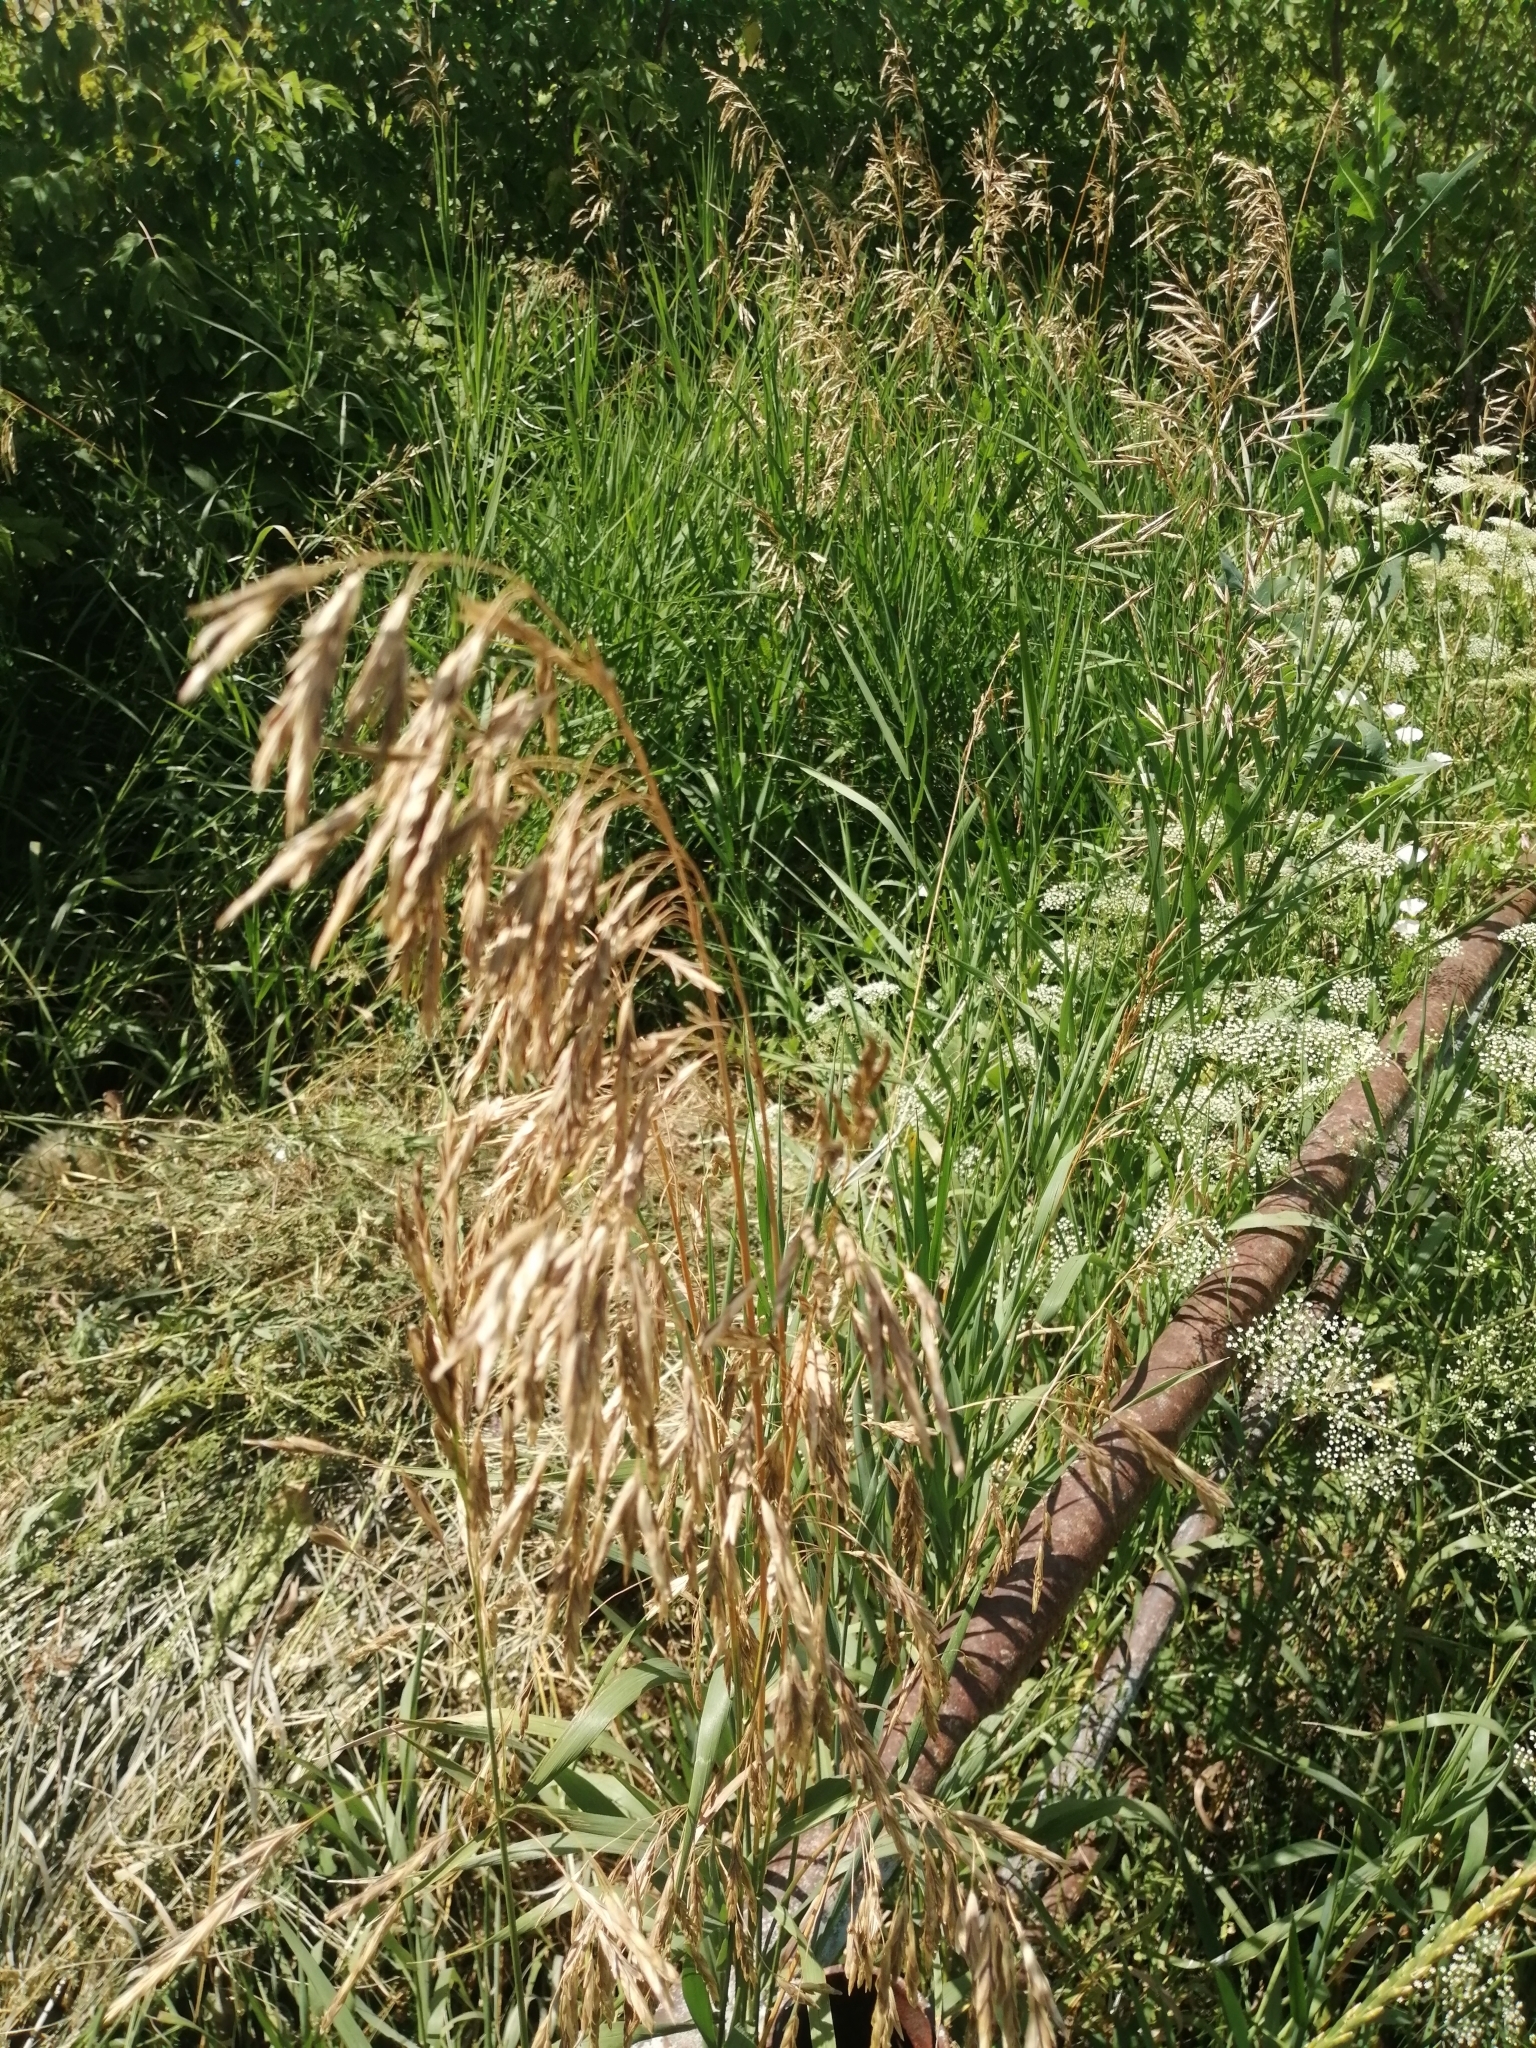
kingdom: Plantae
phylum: Tracheophyta
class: Liliopsida
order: Poales
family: Poaceae
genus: Bromus
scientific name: Bromus inermis
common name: Smooth brome
